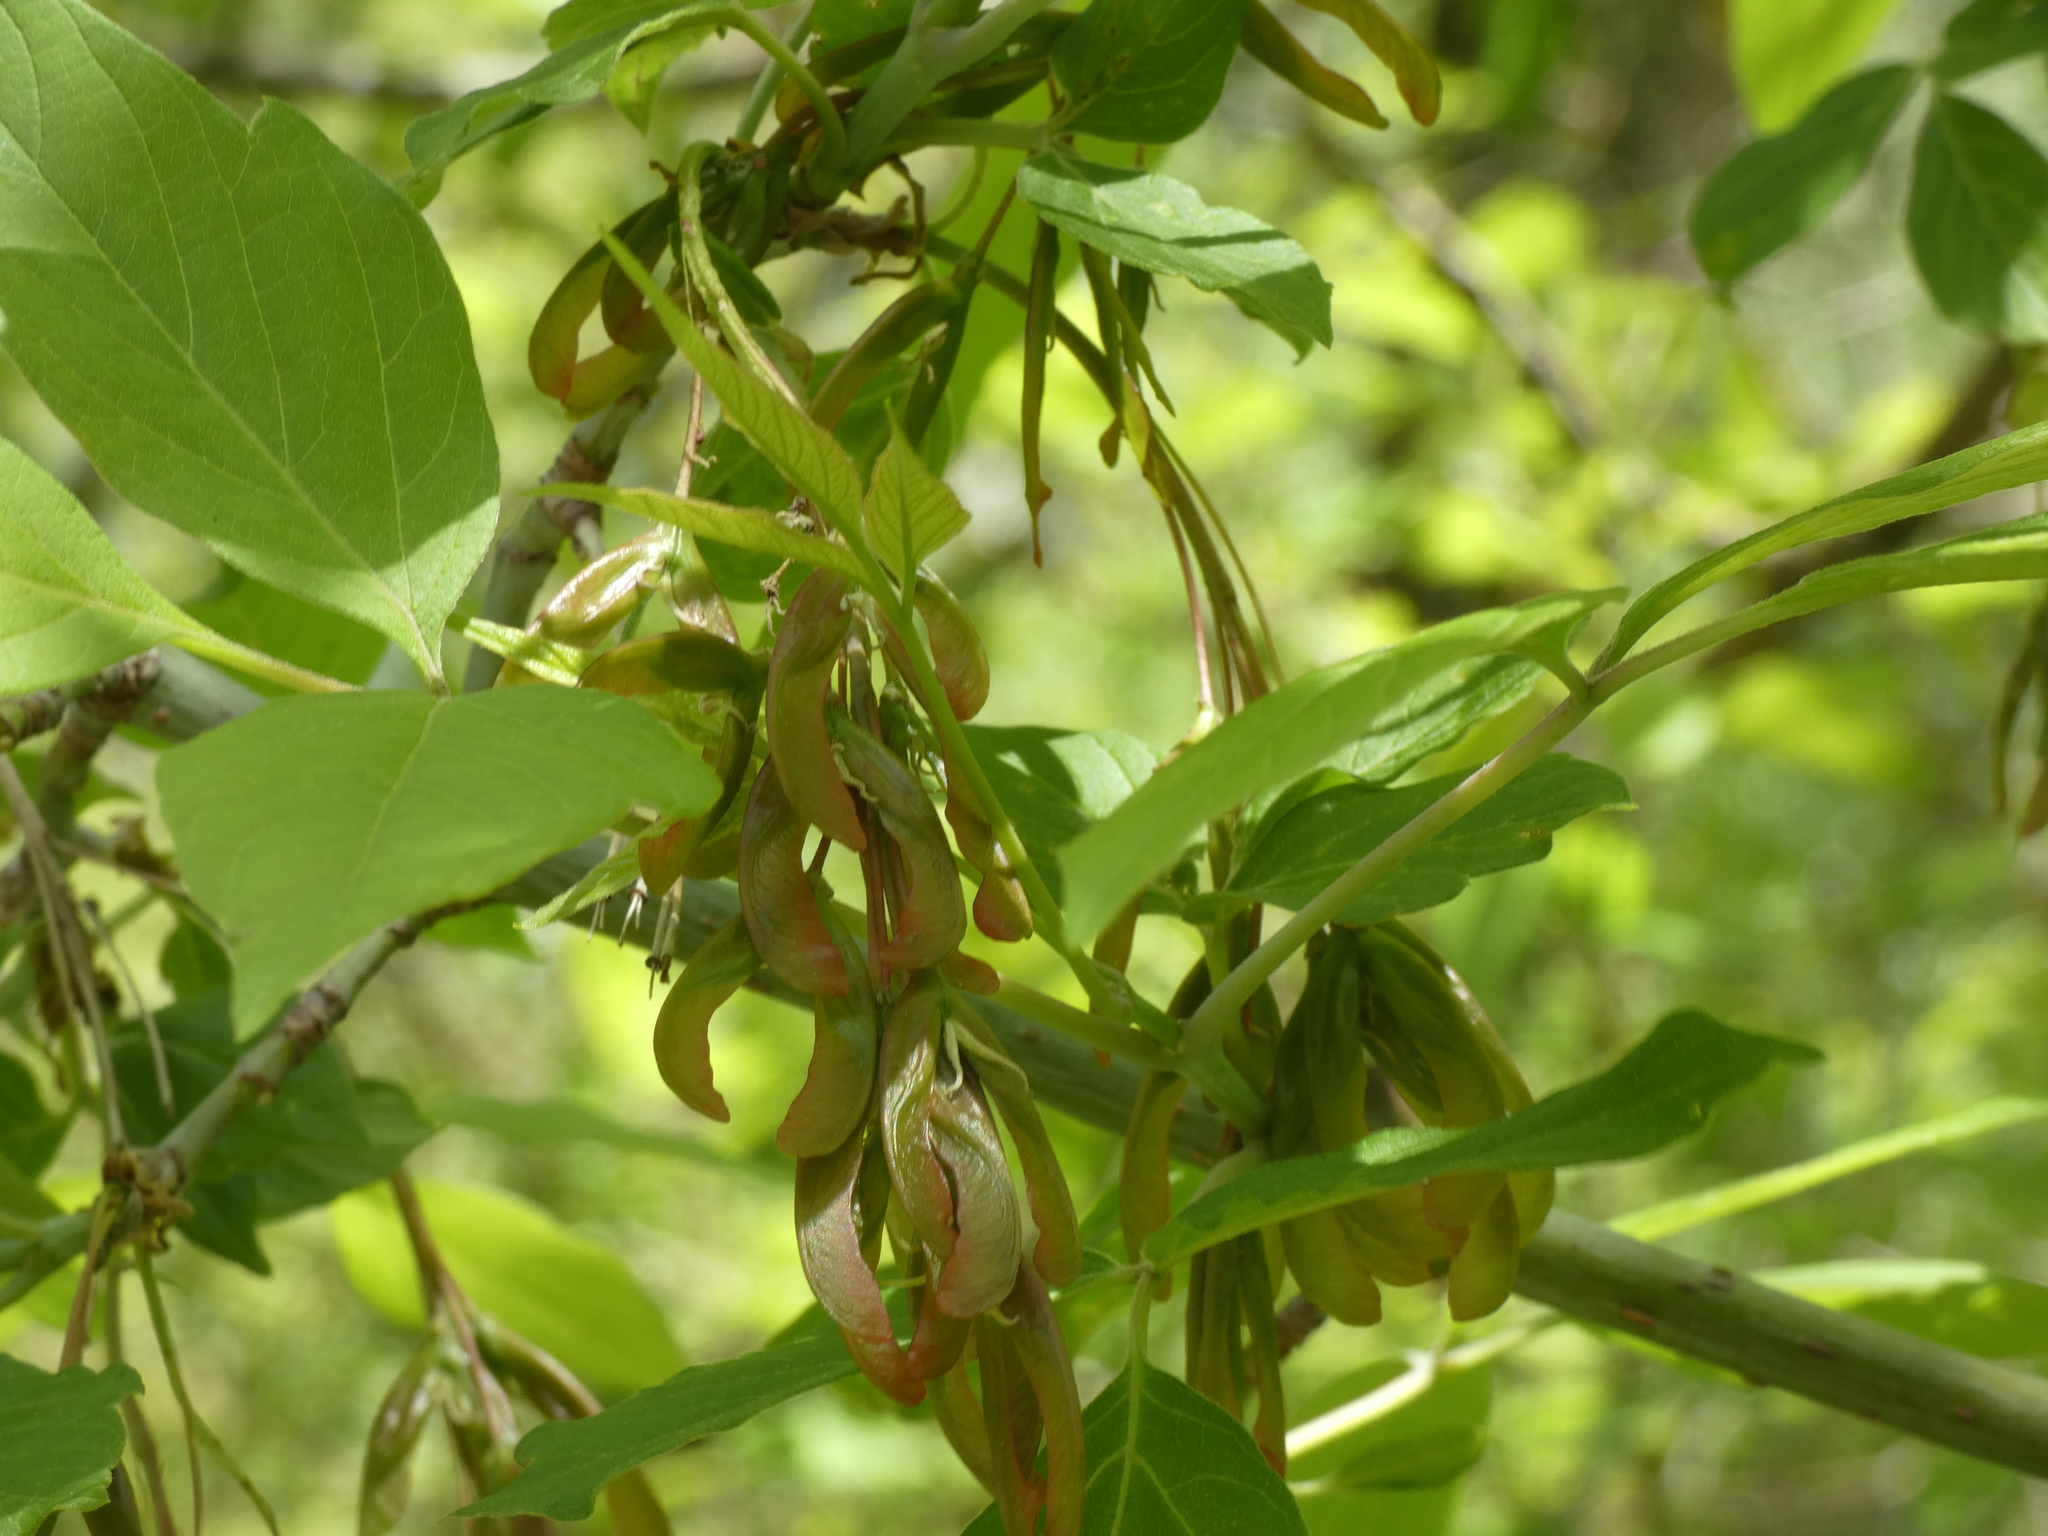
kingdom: Plantae
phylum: Tracheophyta
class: Magnoliopsida
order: Sapindales
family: Sapindaceae
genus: Acer
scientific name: Acer negundo
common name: Ashleaf maple
